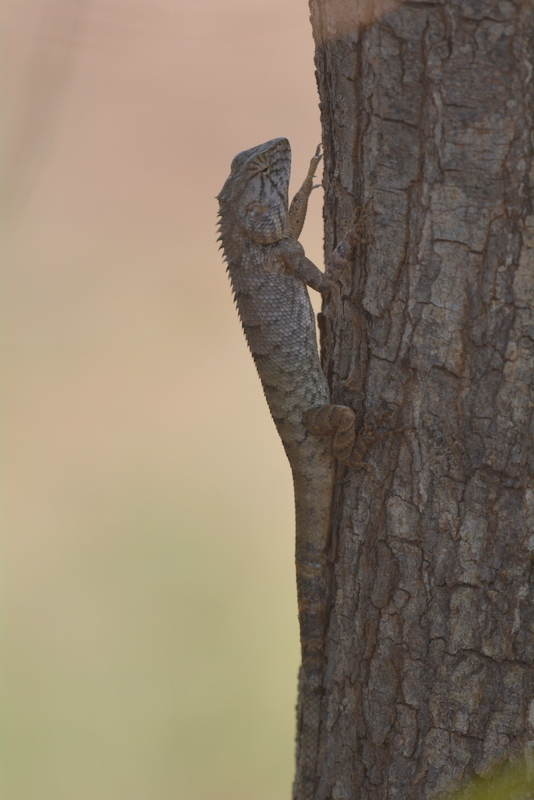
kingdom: Animalia
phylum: Chordata
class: Squamata
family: Agamidae
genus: Calotes
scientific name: Calotes versicolor
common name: Oriental garden lizard
